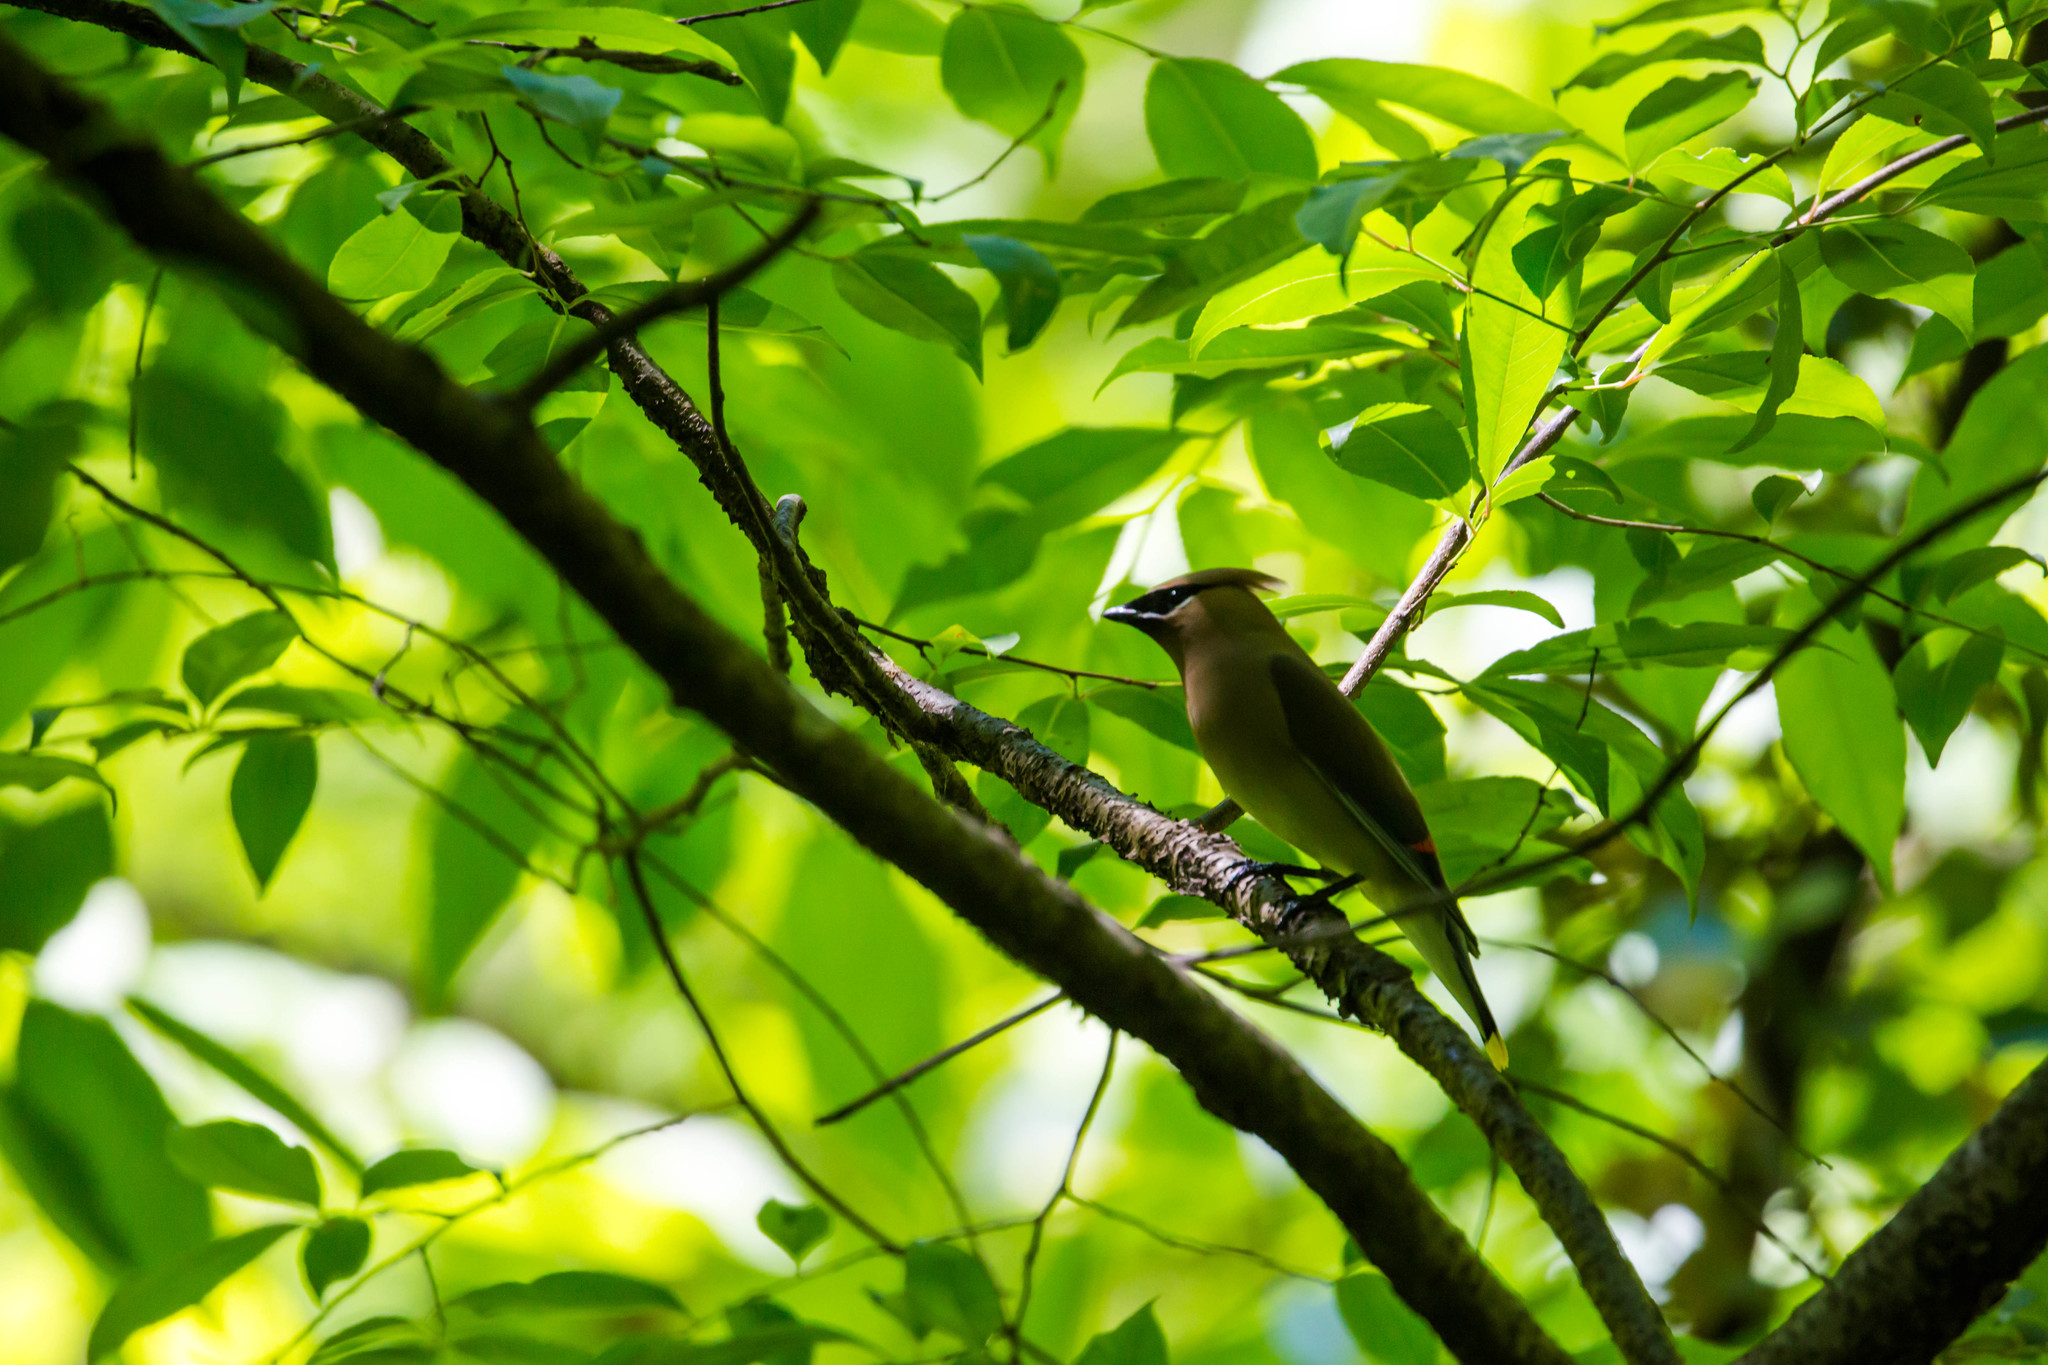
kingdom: Animalia
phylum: Chordata
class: Aves
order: Passeriformes
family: Bombycillidae
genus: Bombycilla
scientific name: Bombycilla cedrorum
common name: Cedar waxwing
